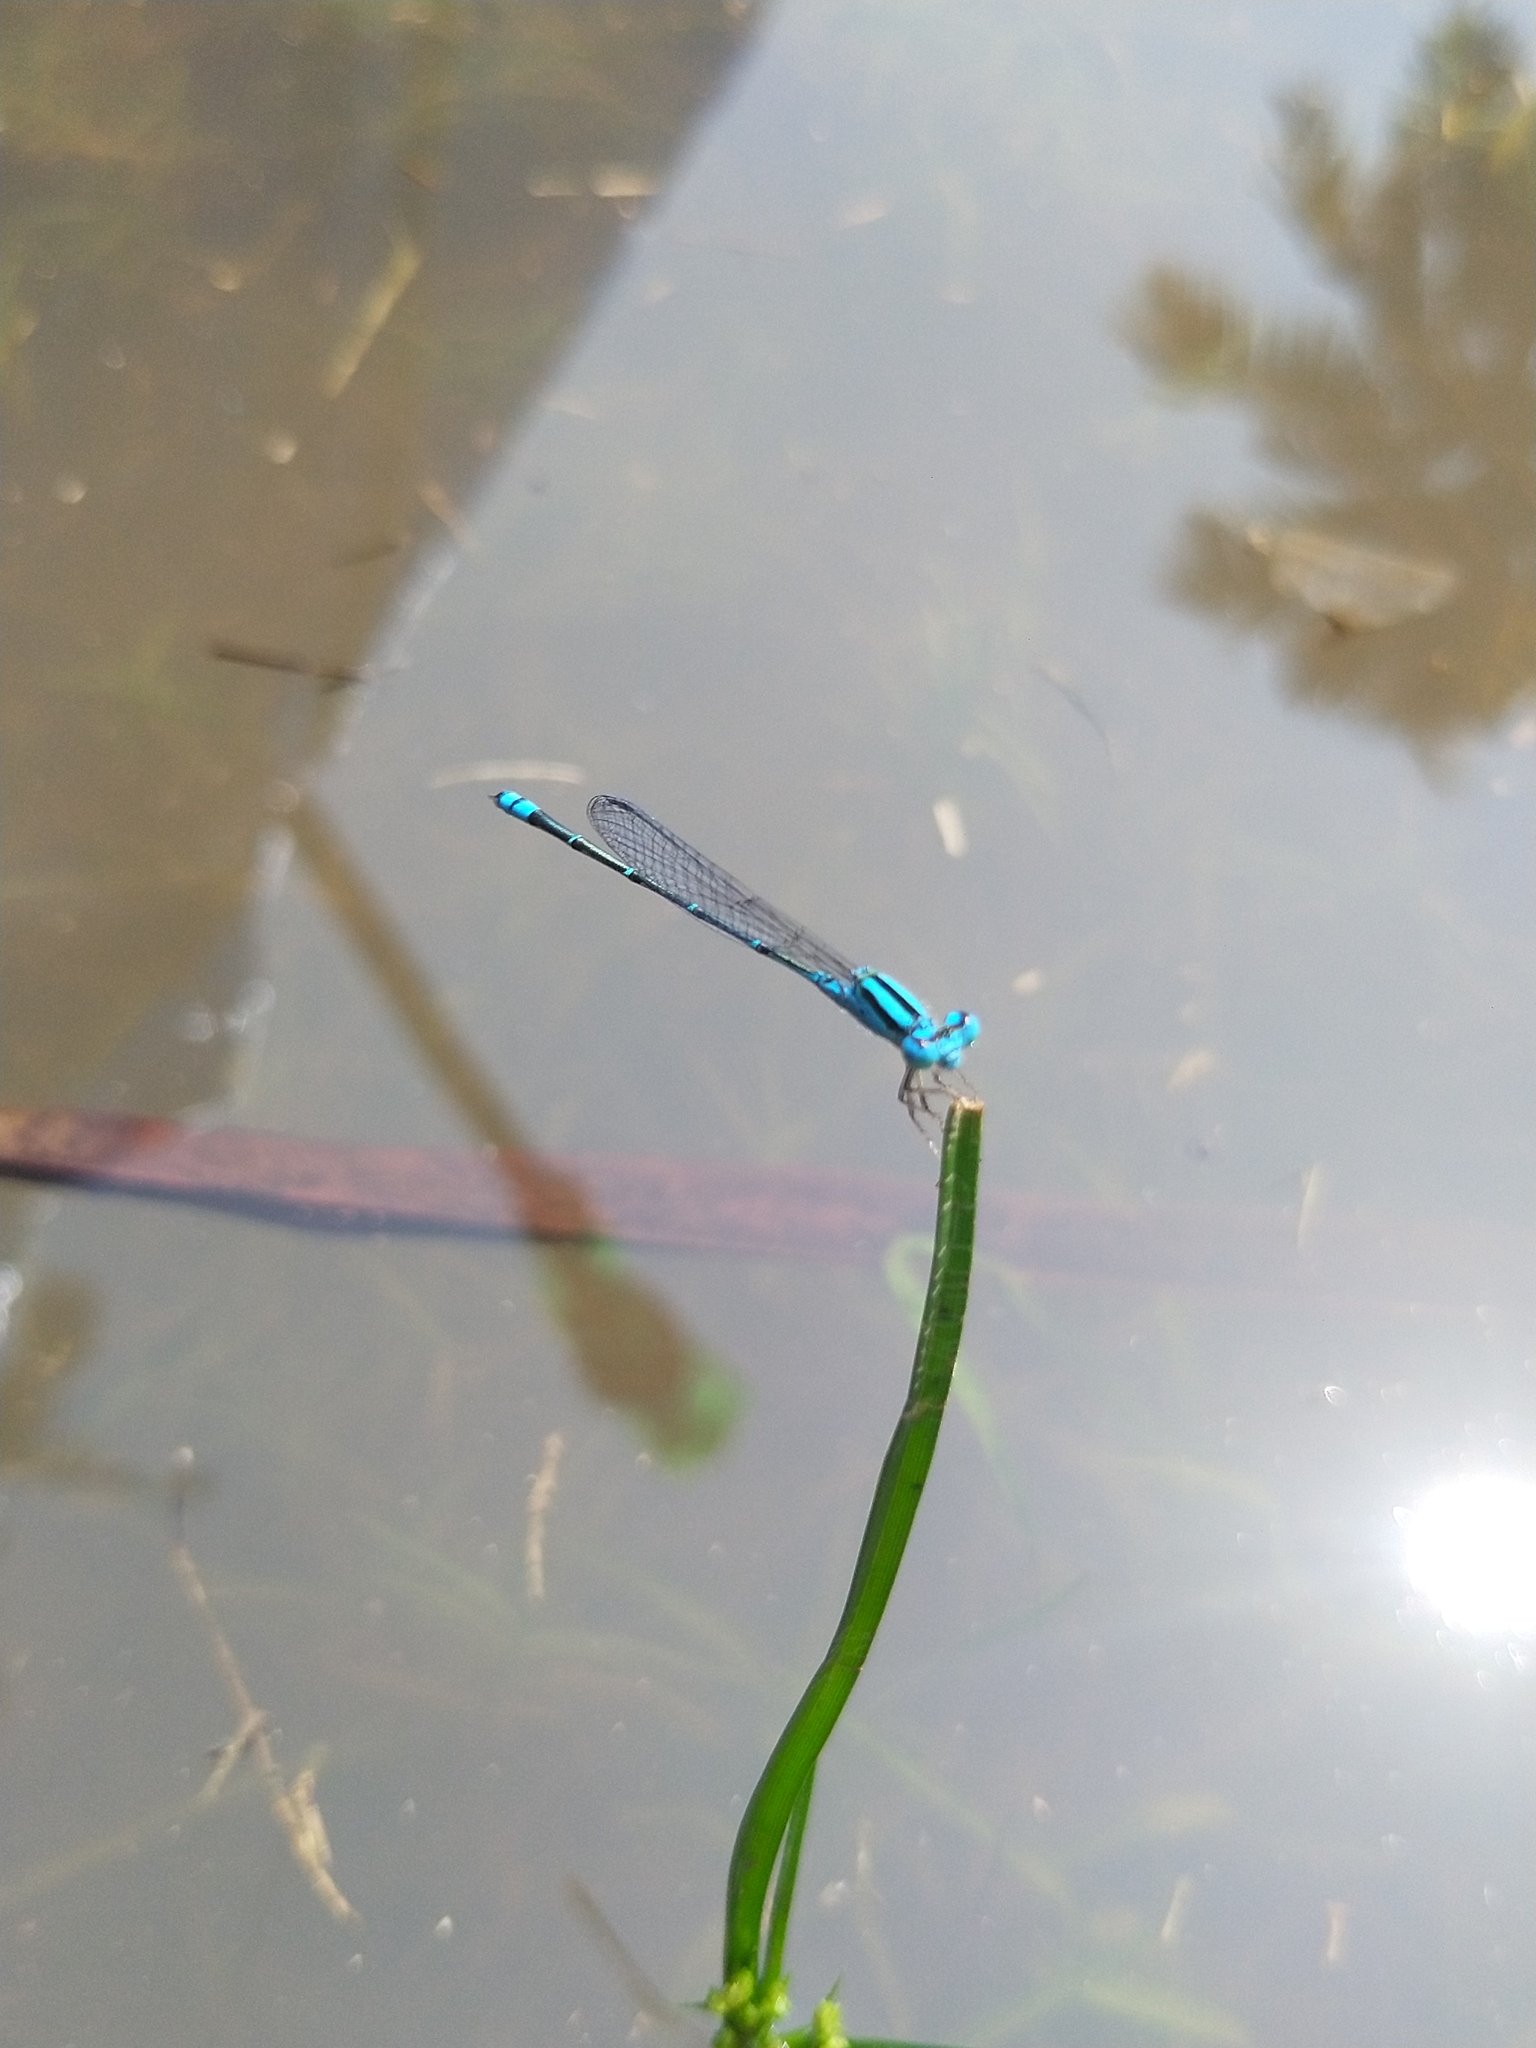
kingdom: Animalia
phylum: Arthropoda
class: Insecta
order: Odonata
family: Coenagrionidae
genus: Pseudagrion
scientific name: Pseudagrion microcephalum
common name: Blue riverdamsel
